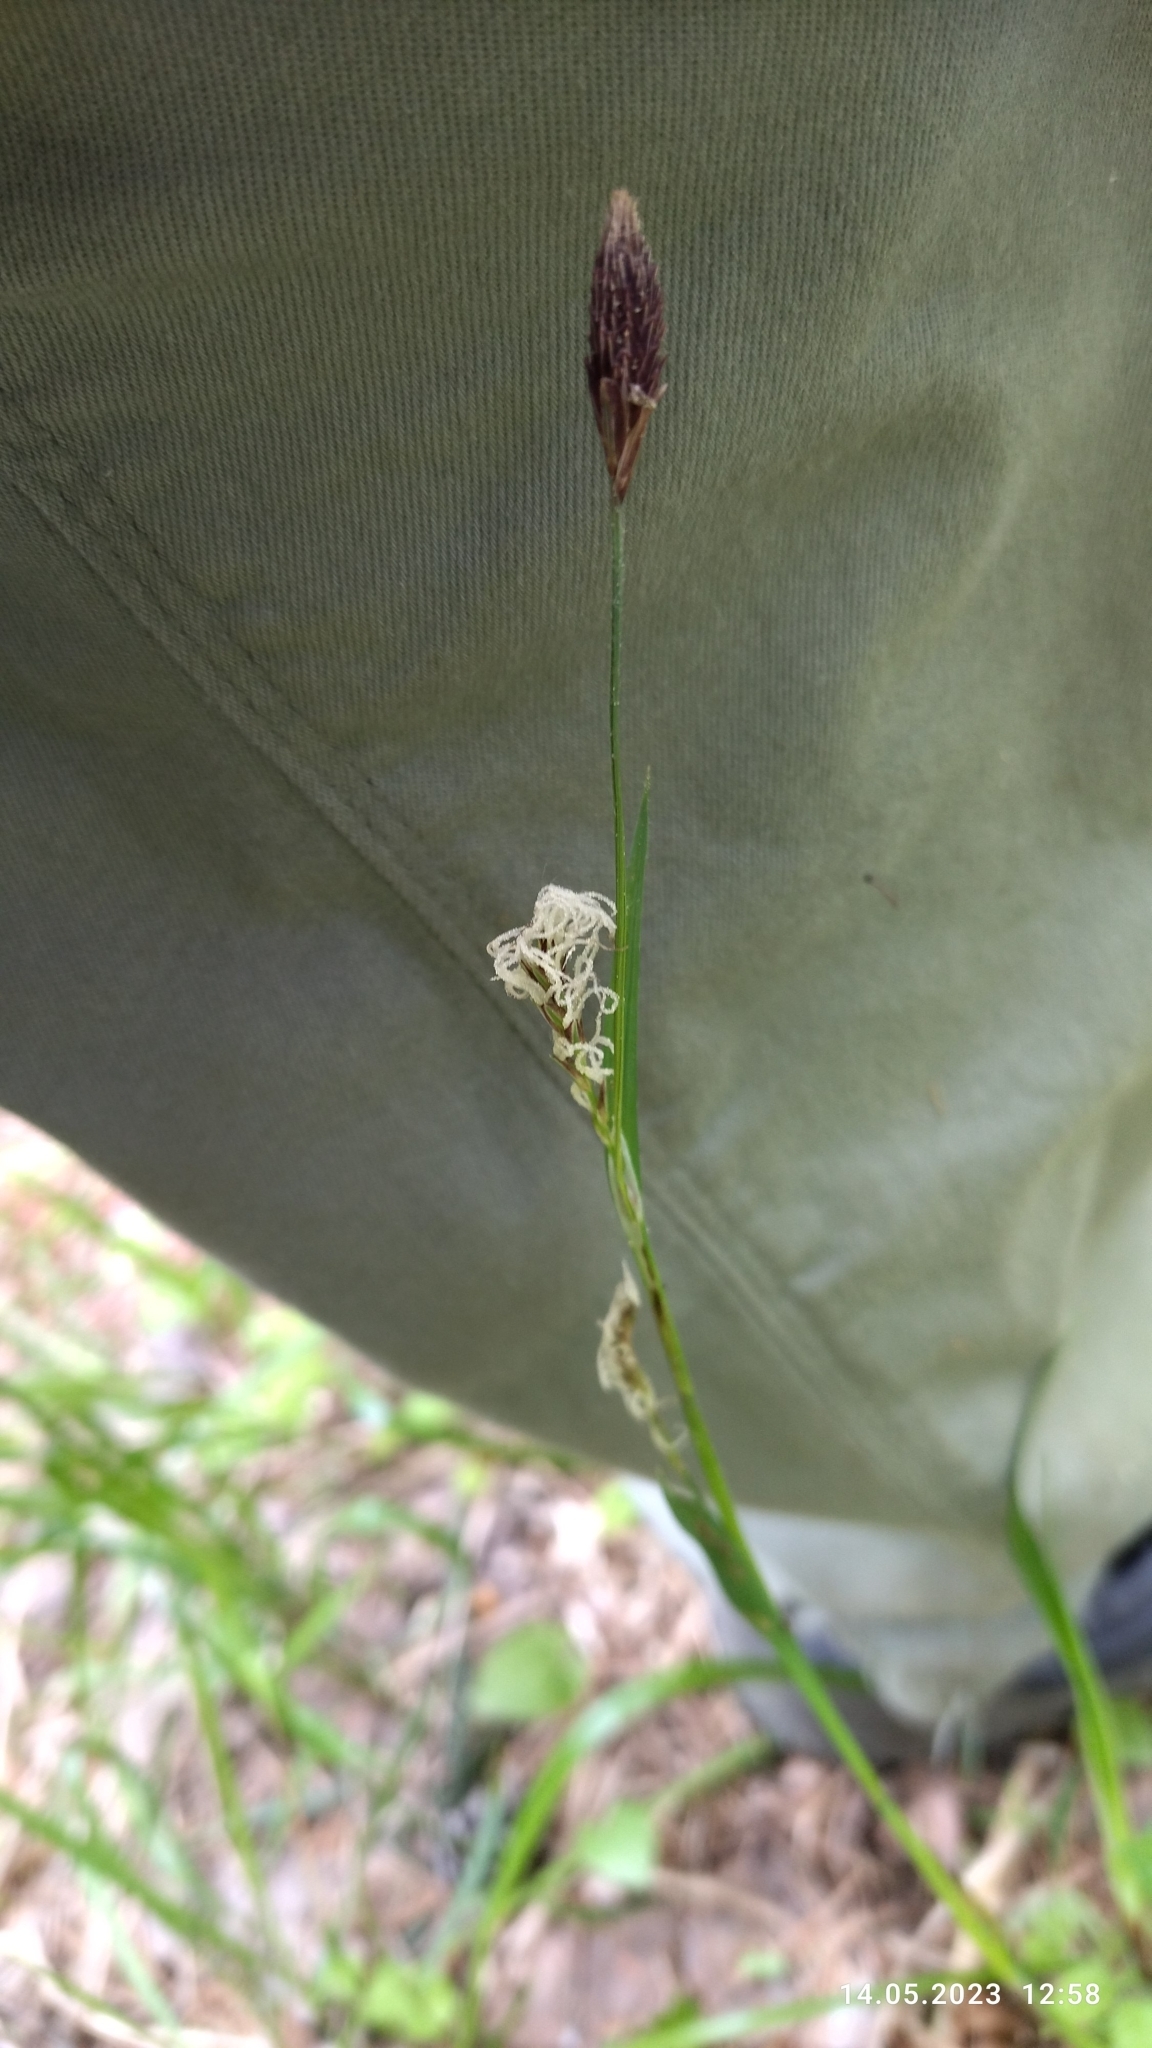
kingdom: Plantae
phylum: Tracheophyta
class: Liliopsida
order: Poales
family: Cyperaceae
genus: Carex
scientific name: Carex pilosa
